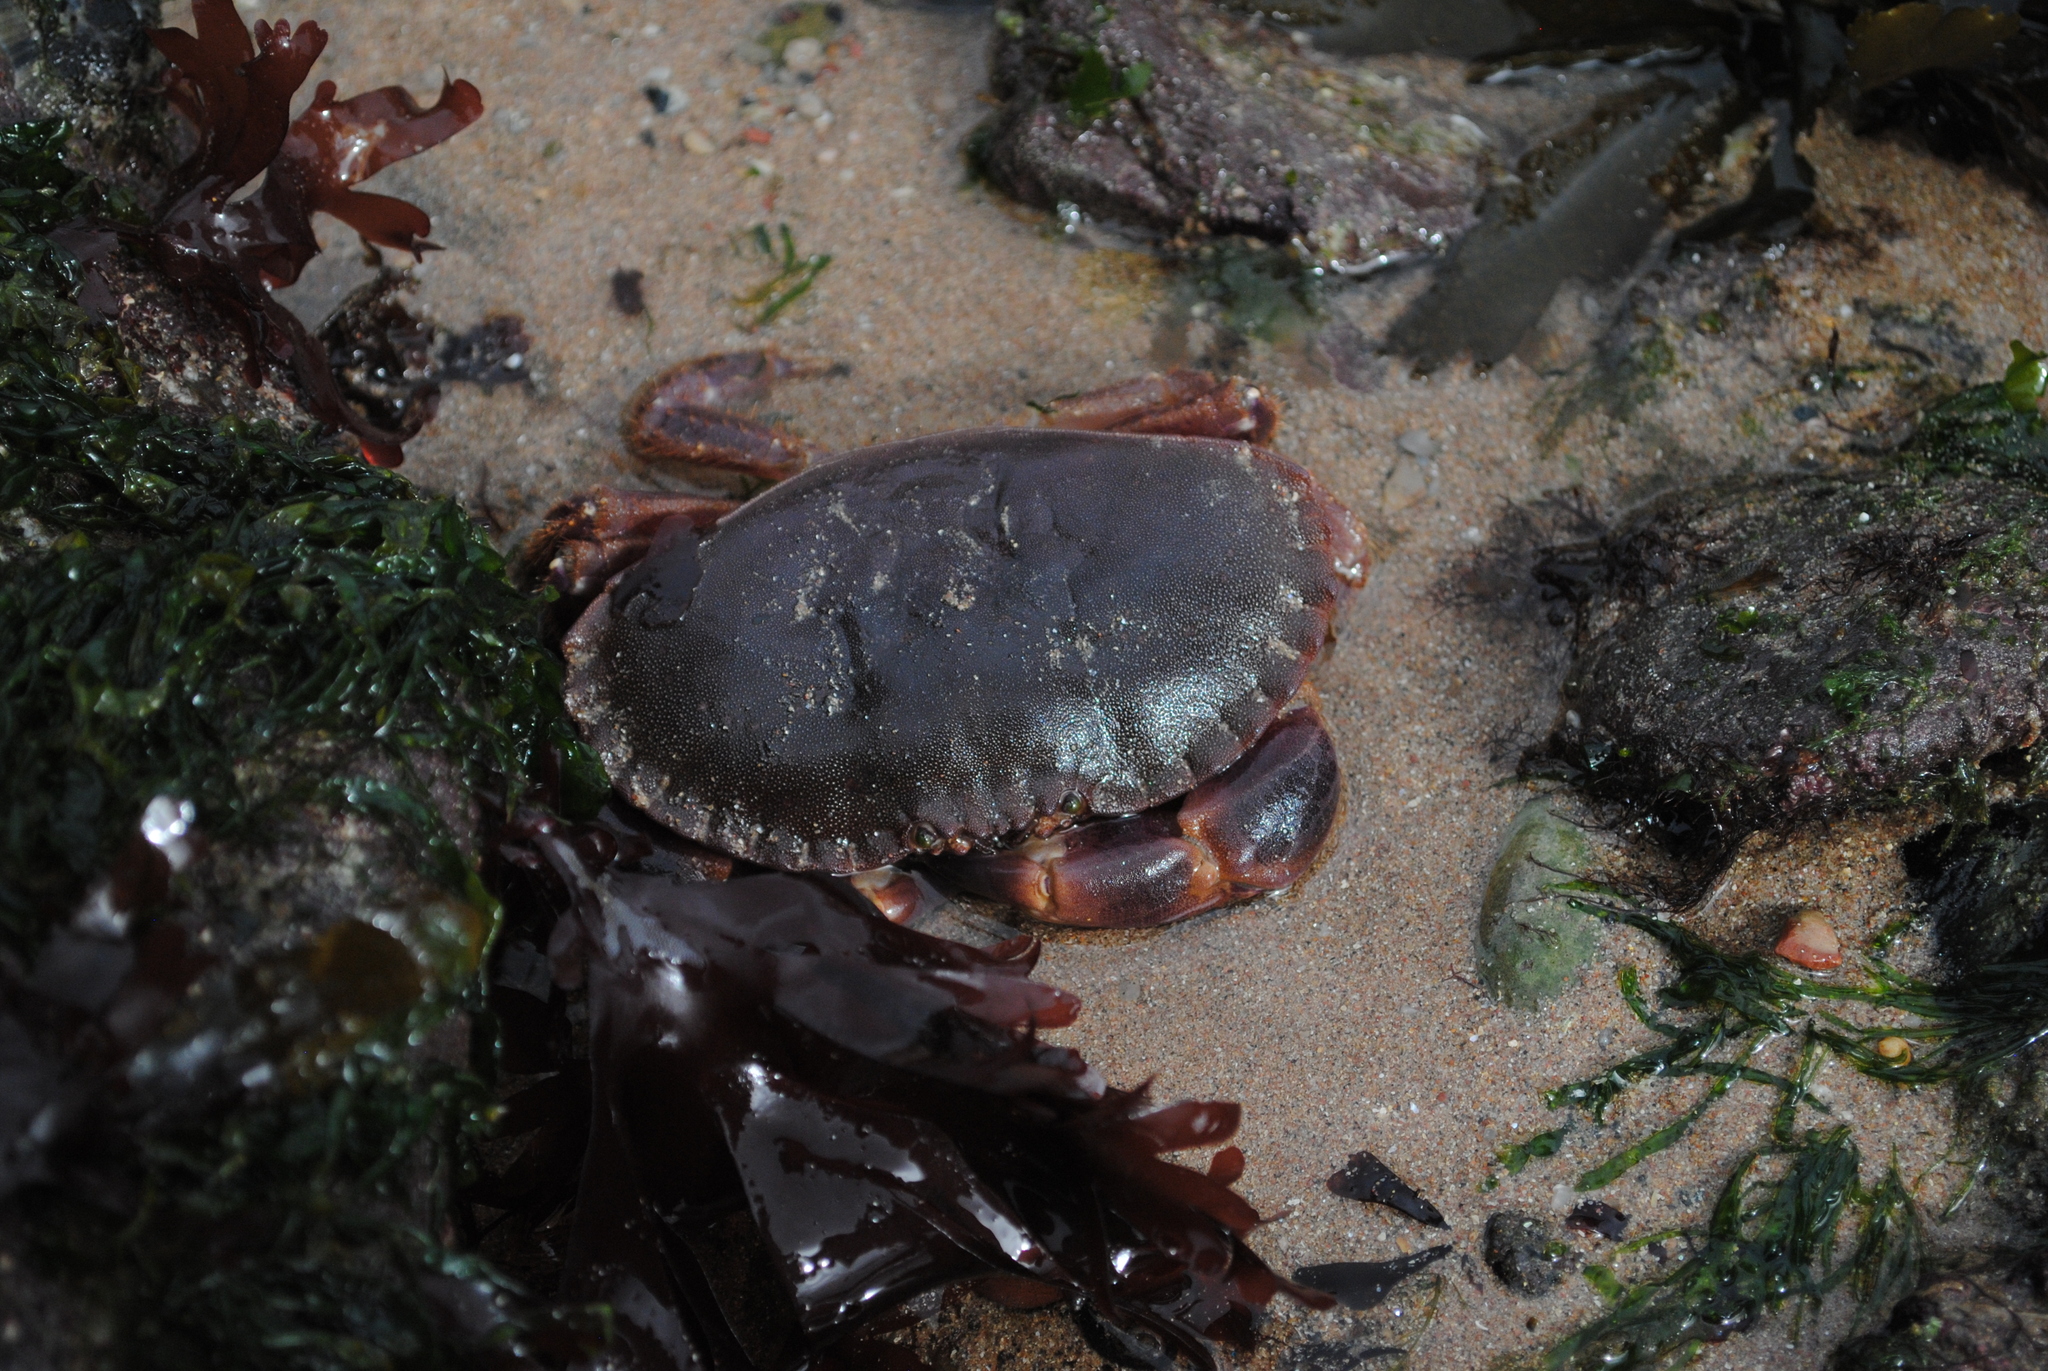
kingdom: Animalia
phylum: Arthropoda
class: Malacostraca
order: Decapoda
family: Cancridae
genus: Cancer
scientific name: Cancer pagurus
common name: Edible crab
